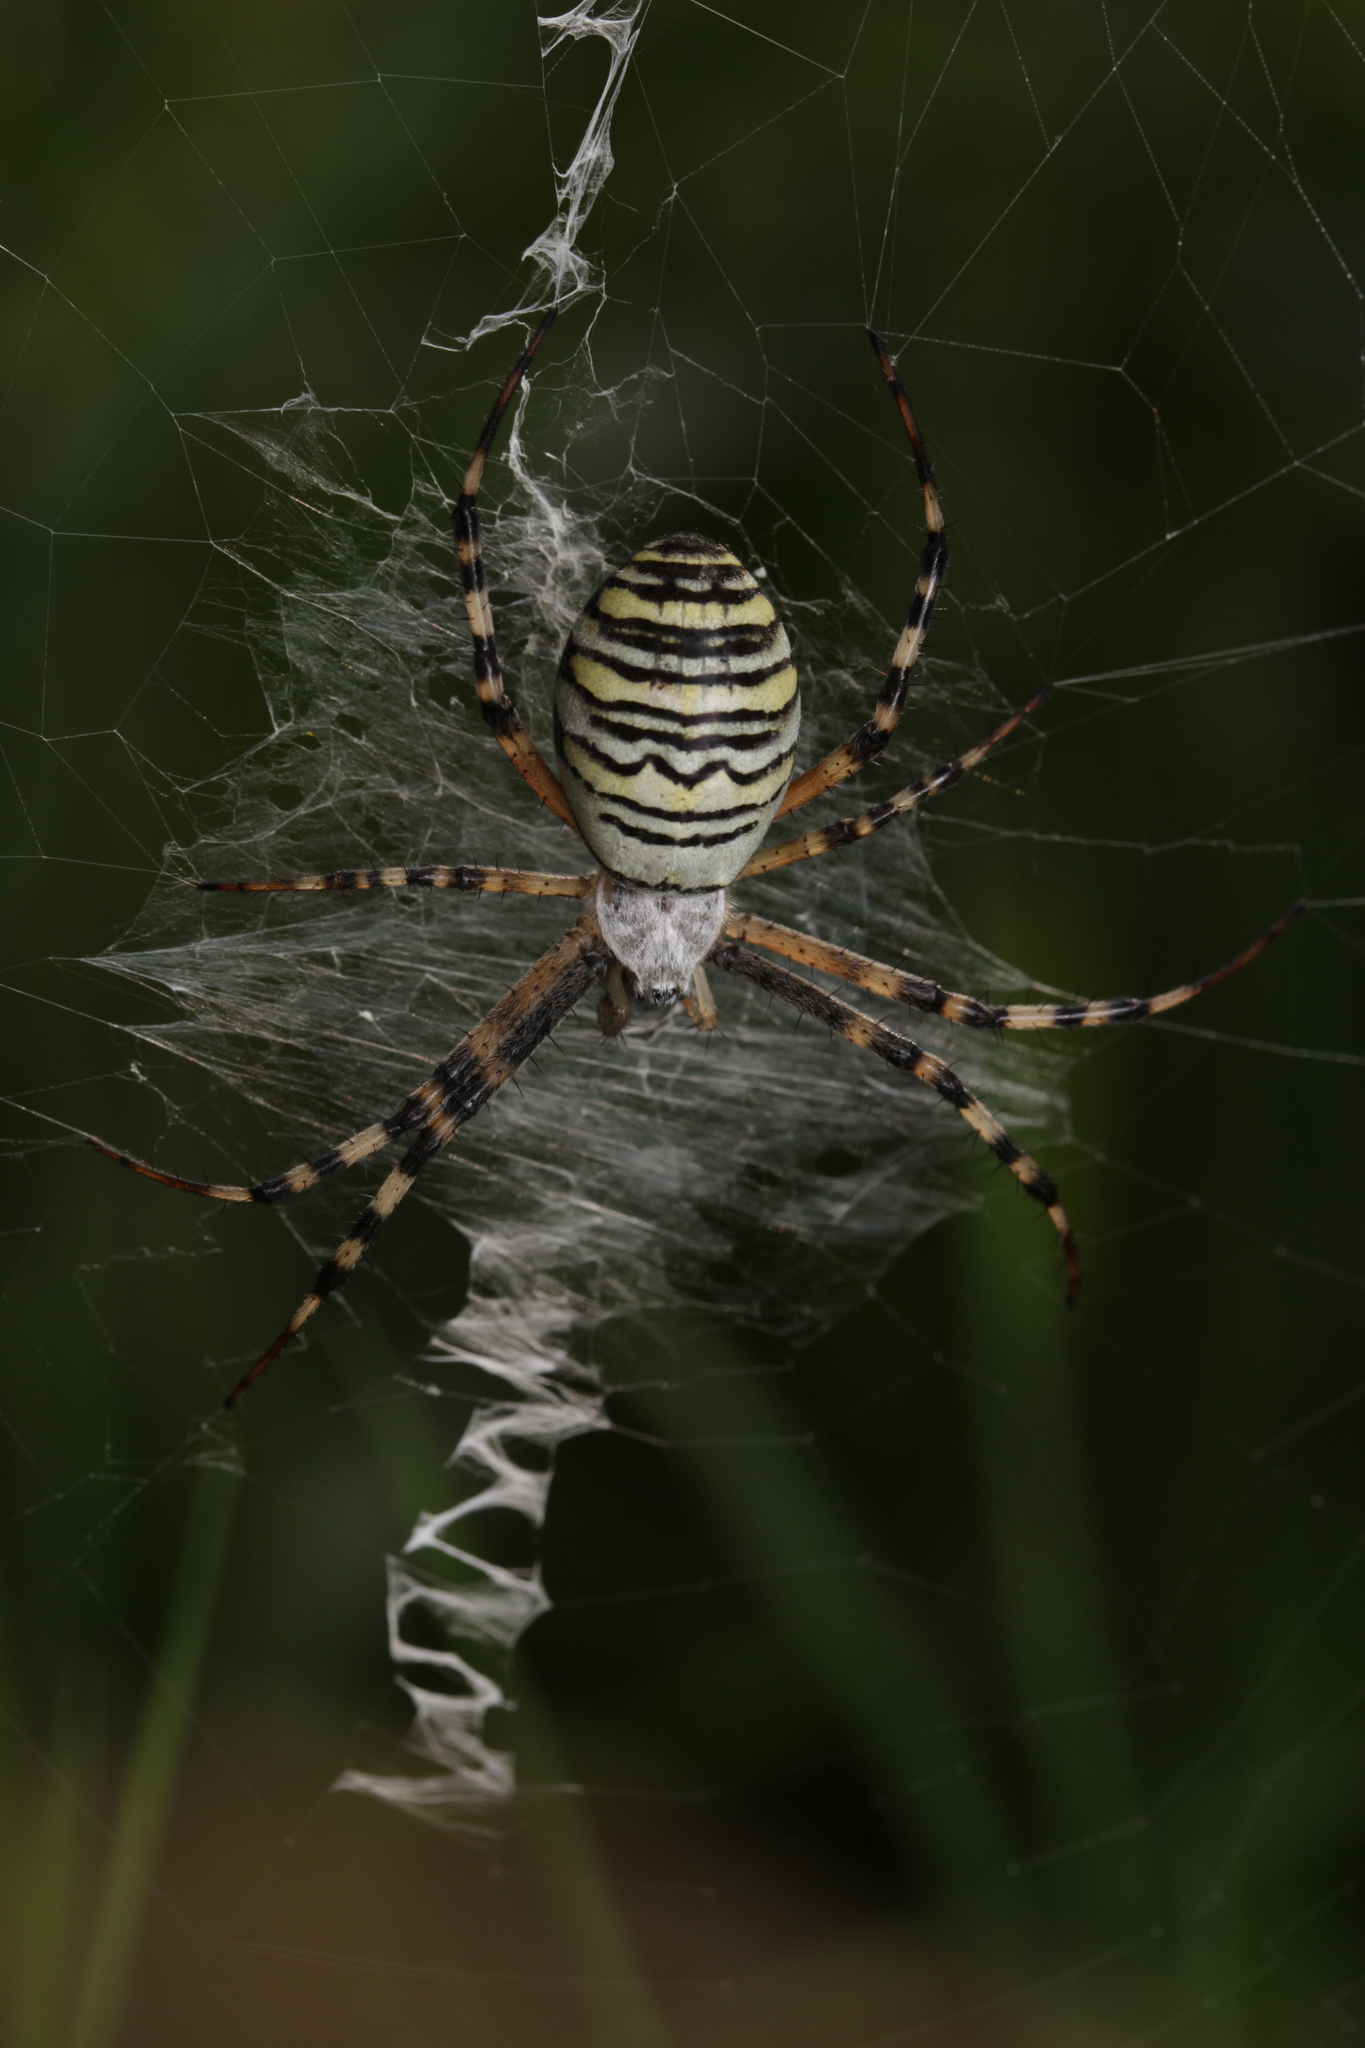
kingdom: Animalia
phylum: Arthropoda
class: Arachnida
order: Araneae
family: Araneidae
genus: Argiope
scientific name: Argiope bruennichi
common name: Wasp spider
